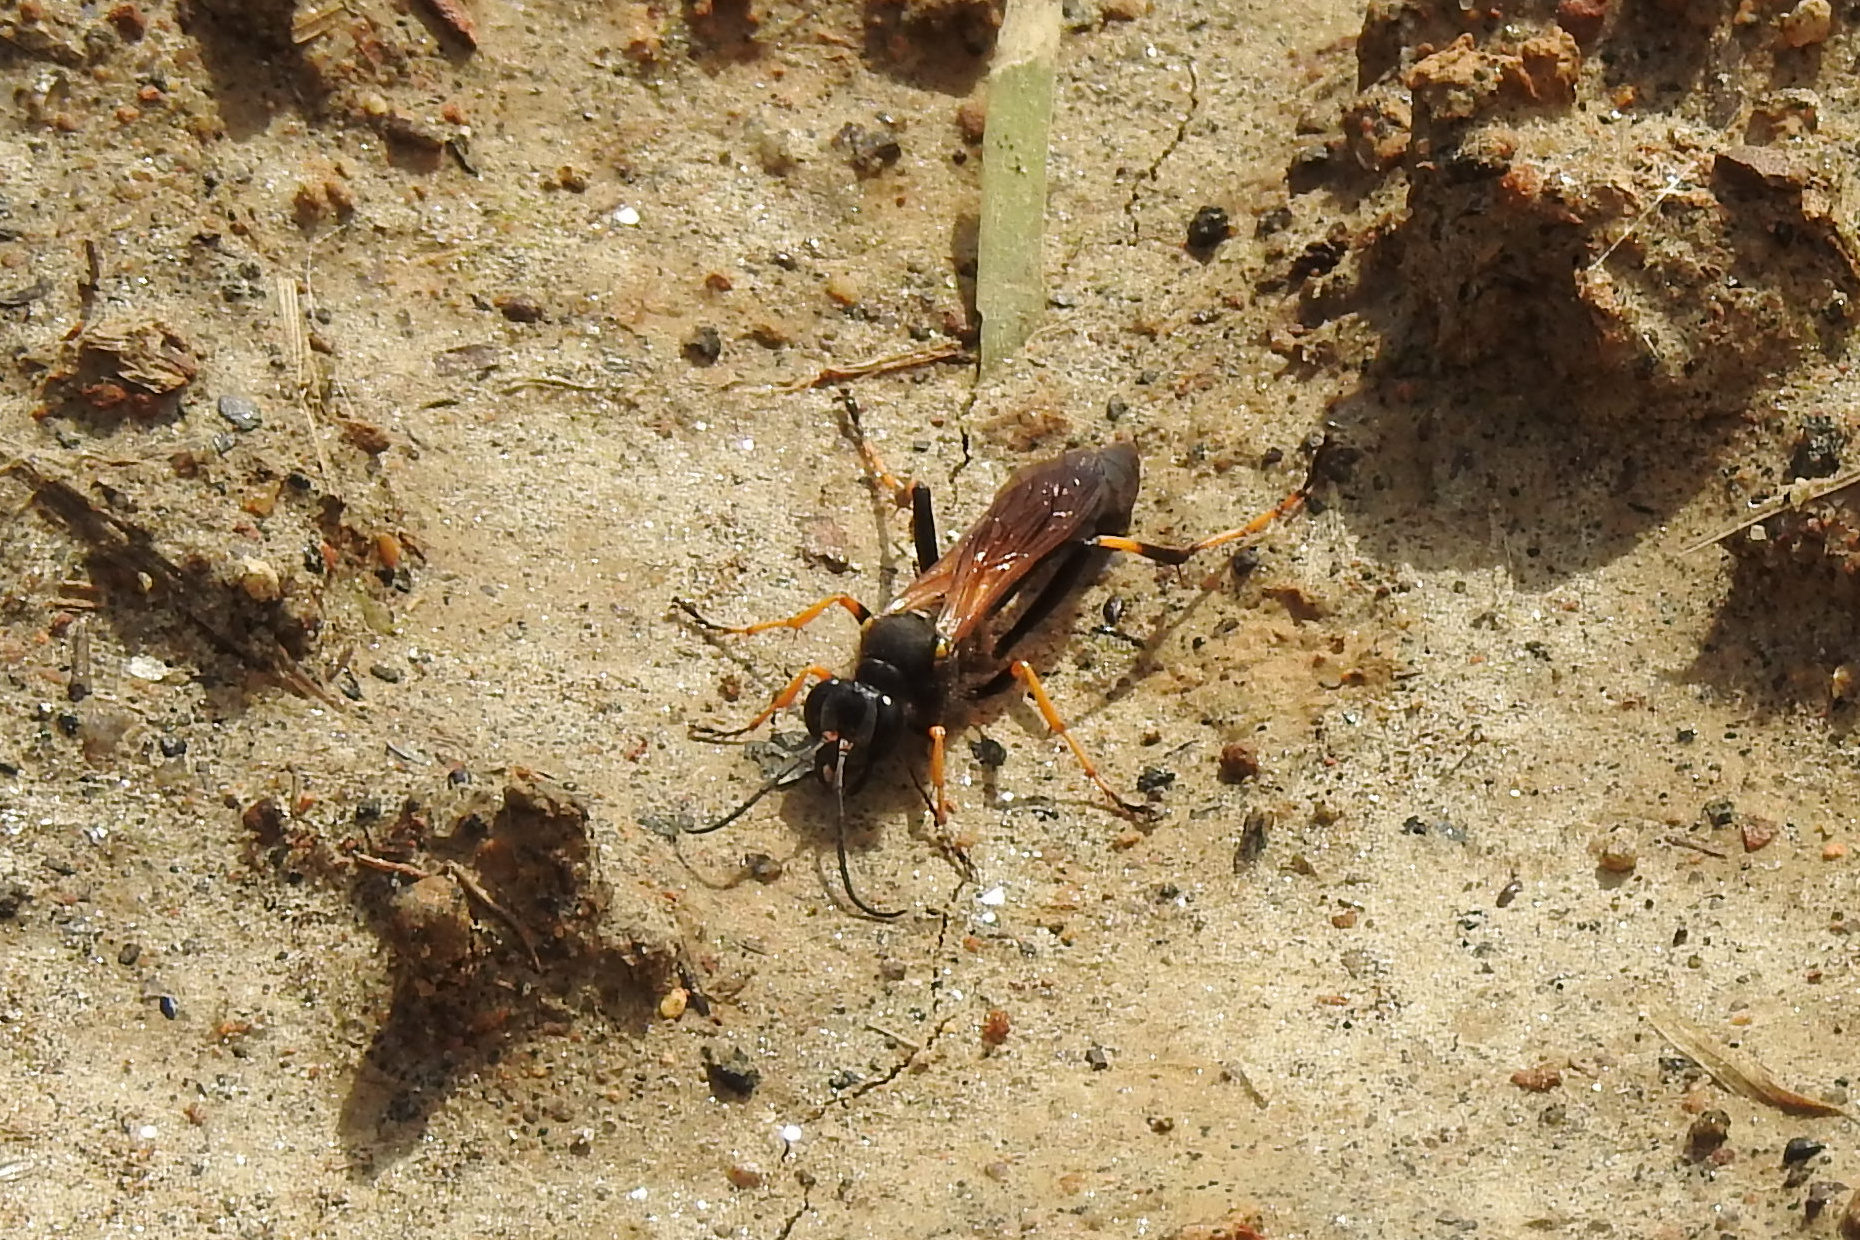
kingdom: Animalia
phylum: Arthropoda
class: Insecta
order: Hymenoptera
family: Sphecidae
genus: Sceliphron
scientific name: Sceliphron caementarium
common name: Mud dauber
